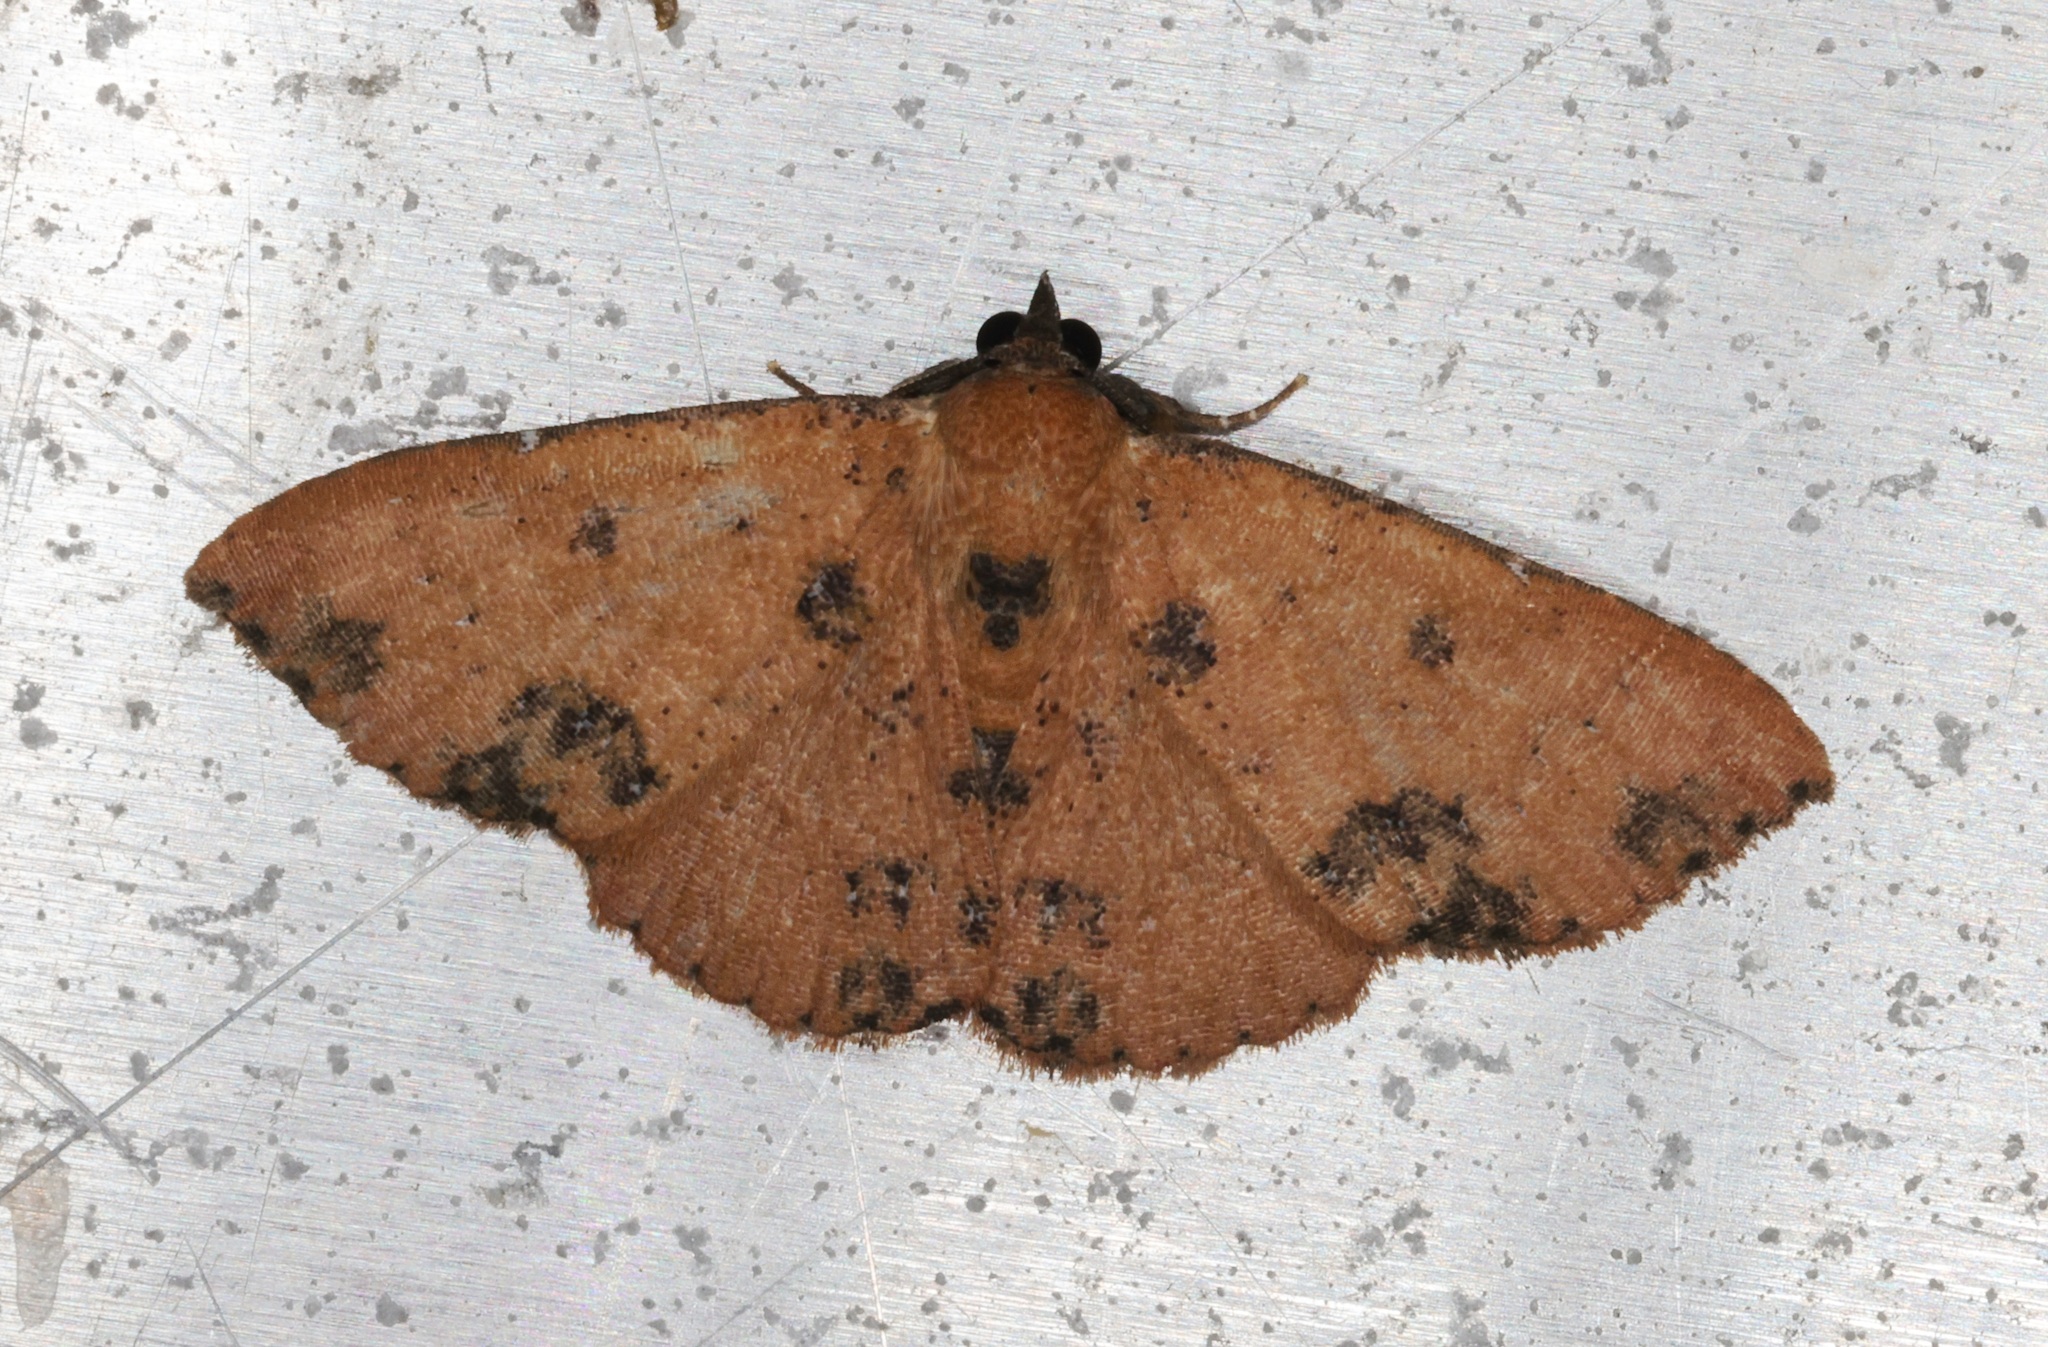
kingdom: Animalia
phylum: Arthropoda
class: Insecta
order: Lepidoptera
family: Erebidae
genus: Corgatha
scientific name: Corgatha tornalis
